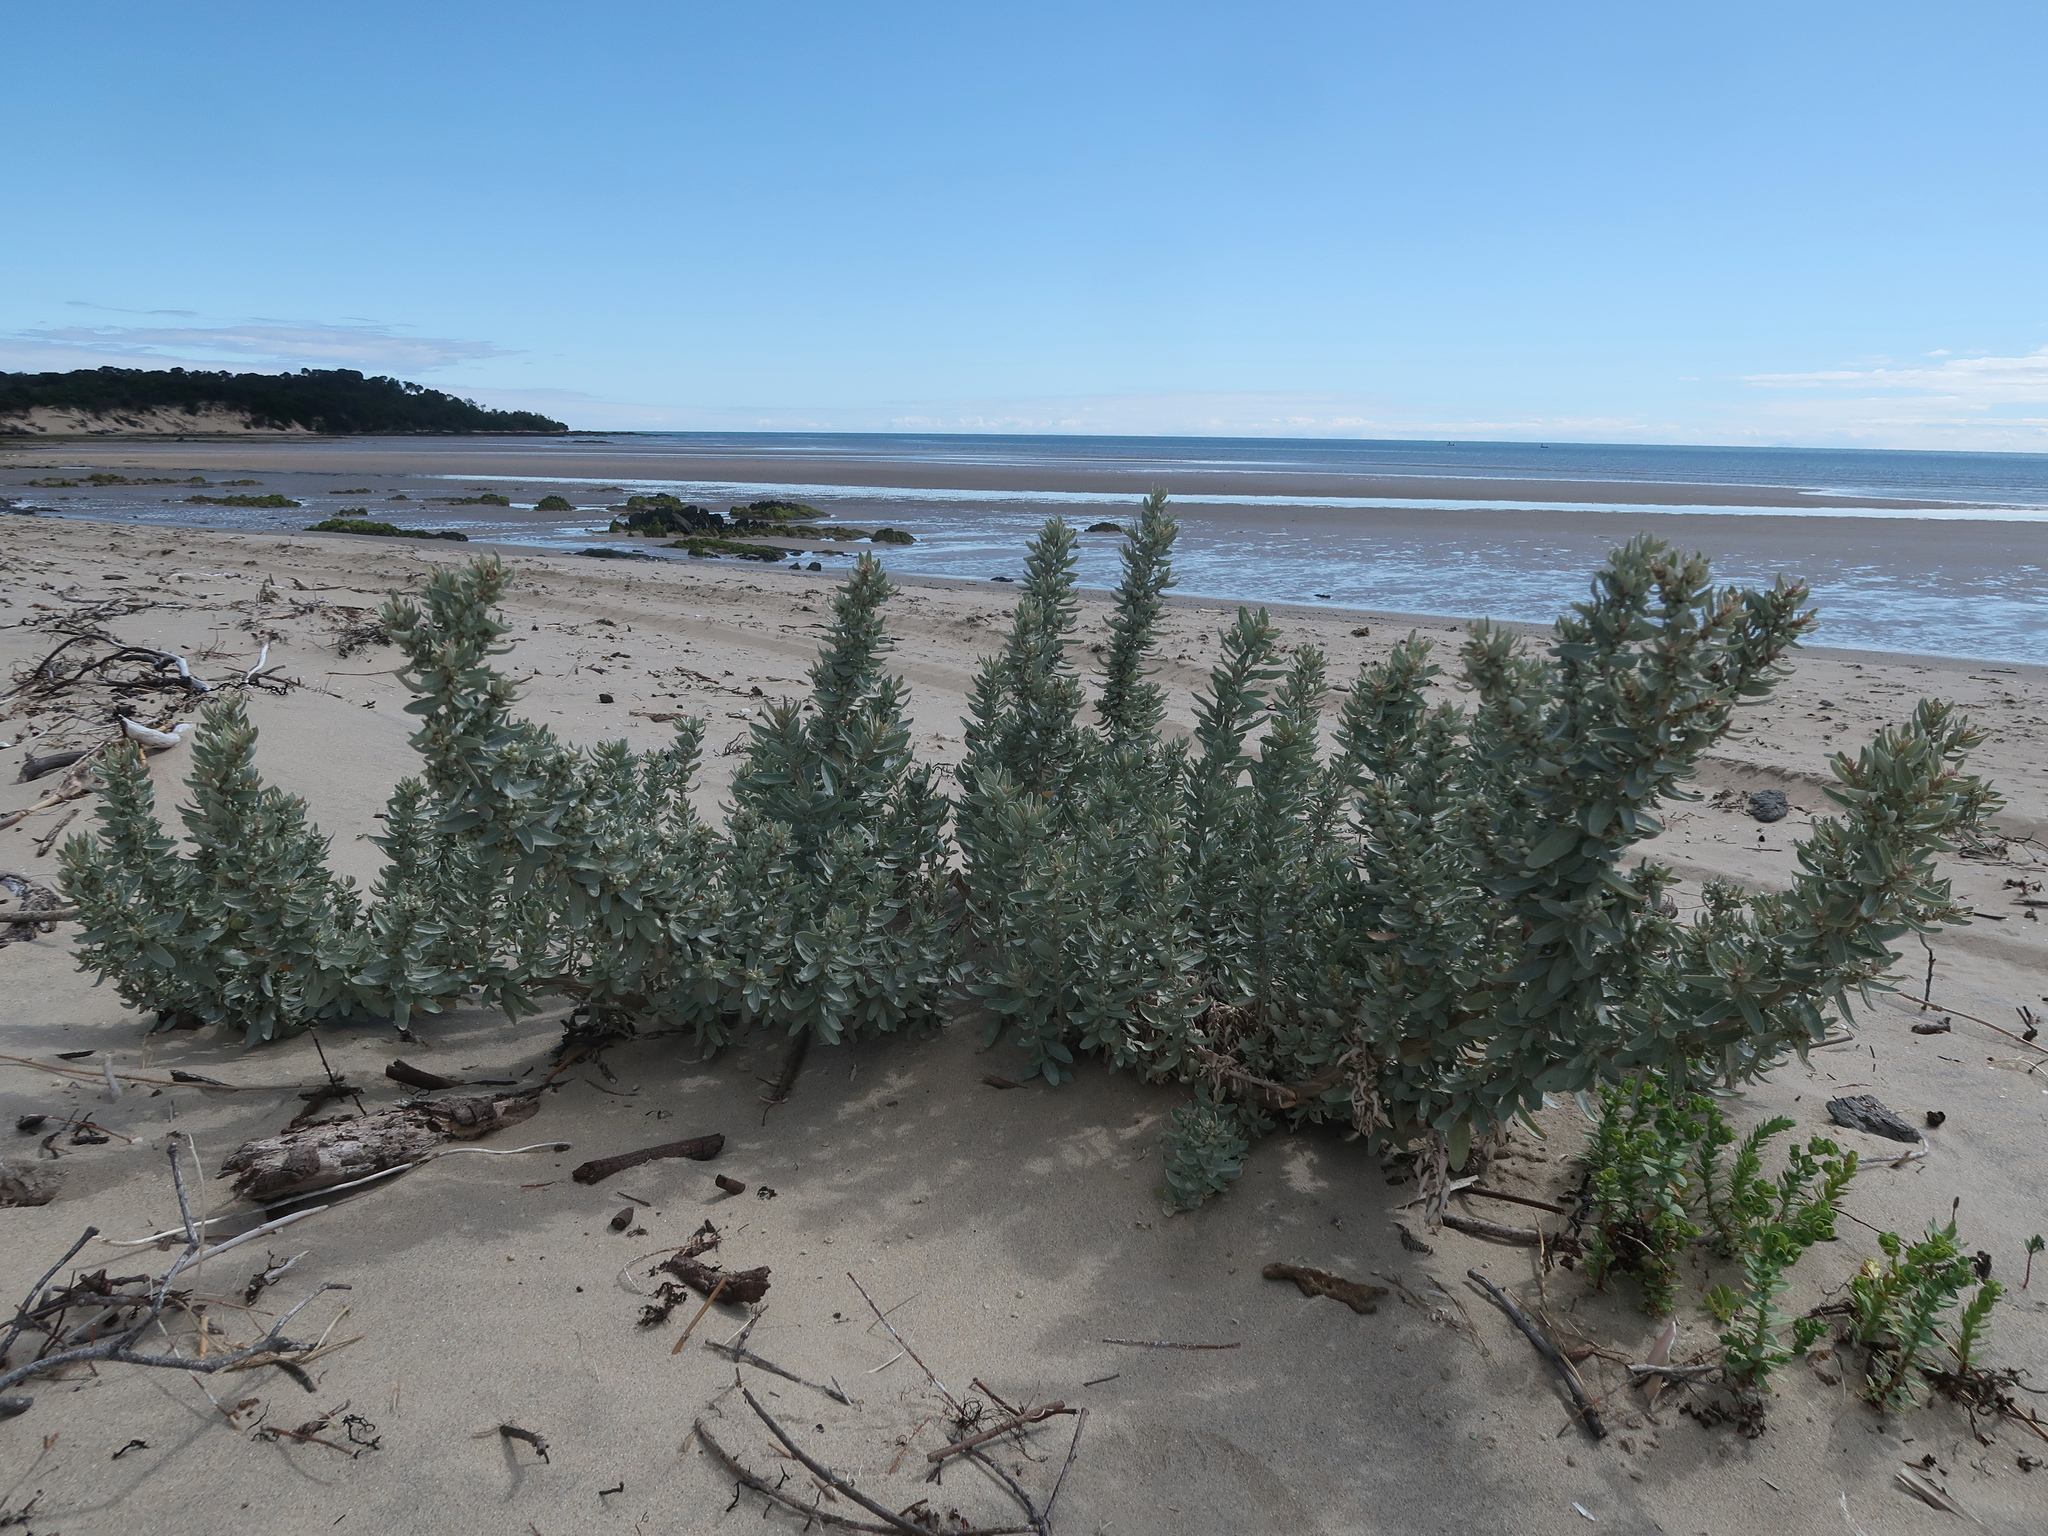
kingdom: Plantae
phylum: Tracheophyta
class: Magnoliopsida
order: Caryophyllales
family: Amaranthaceae
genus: Atriplex
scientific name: Atriplex cinerea
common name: Grey saltbush
